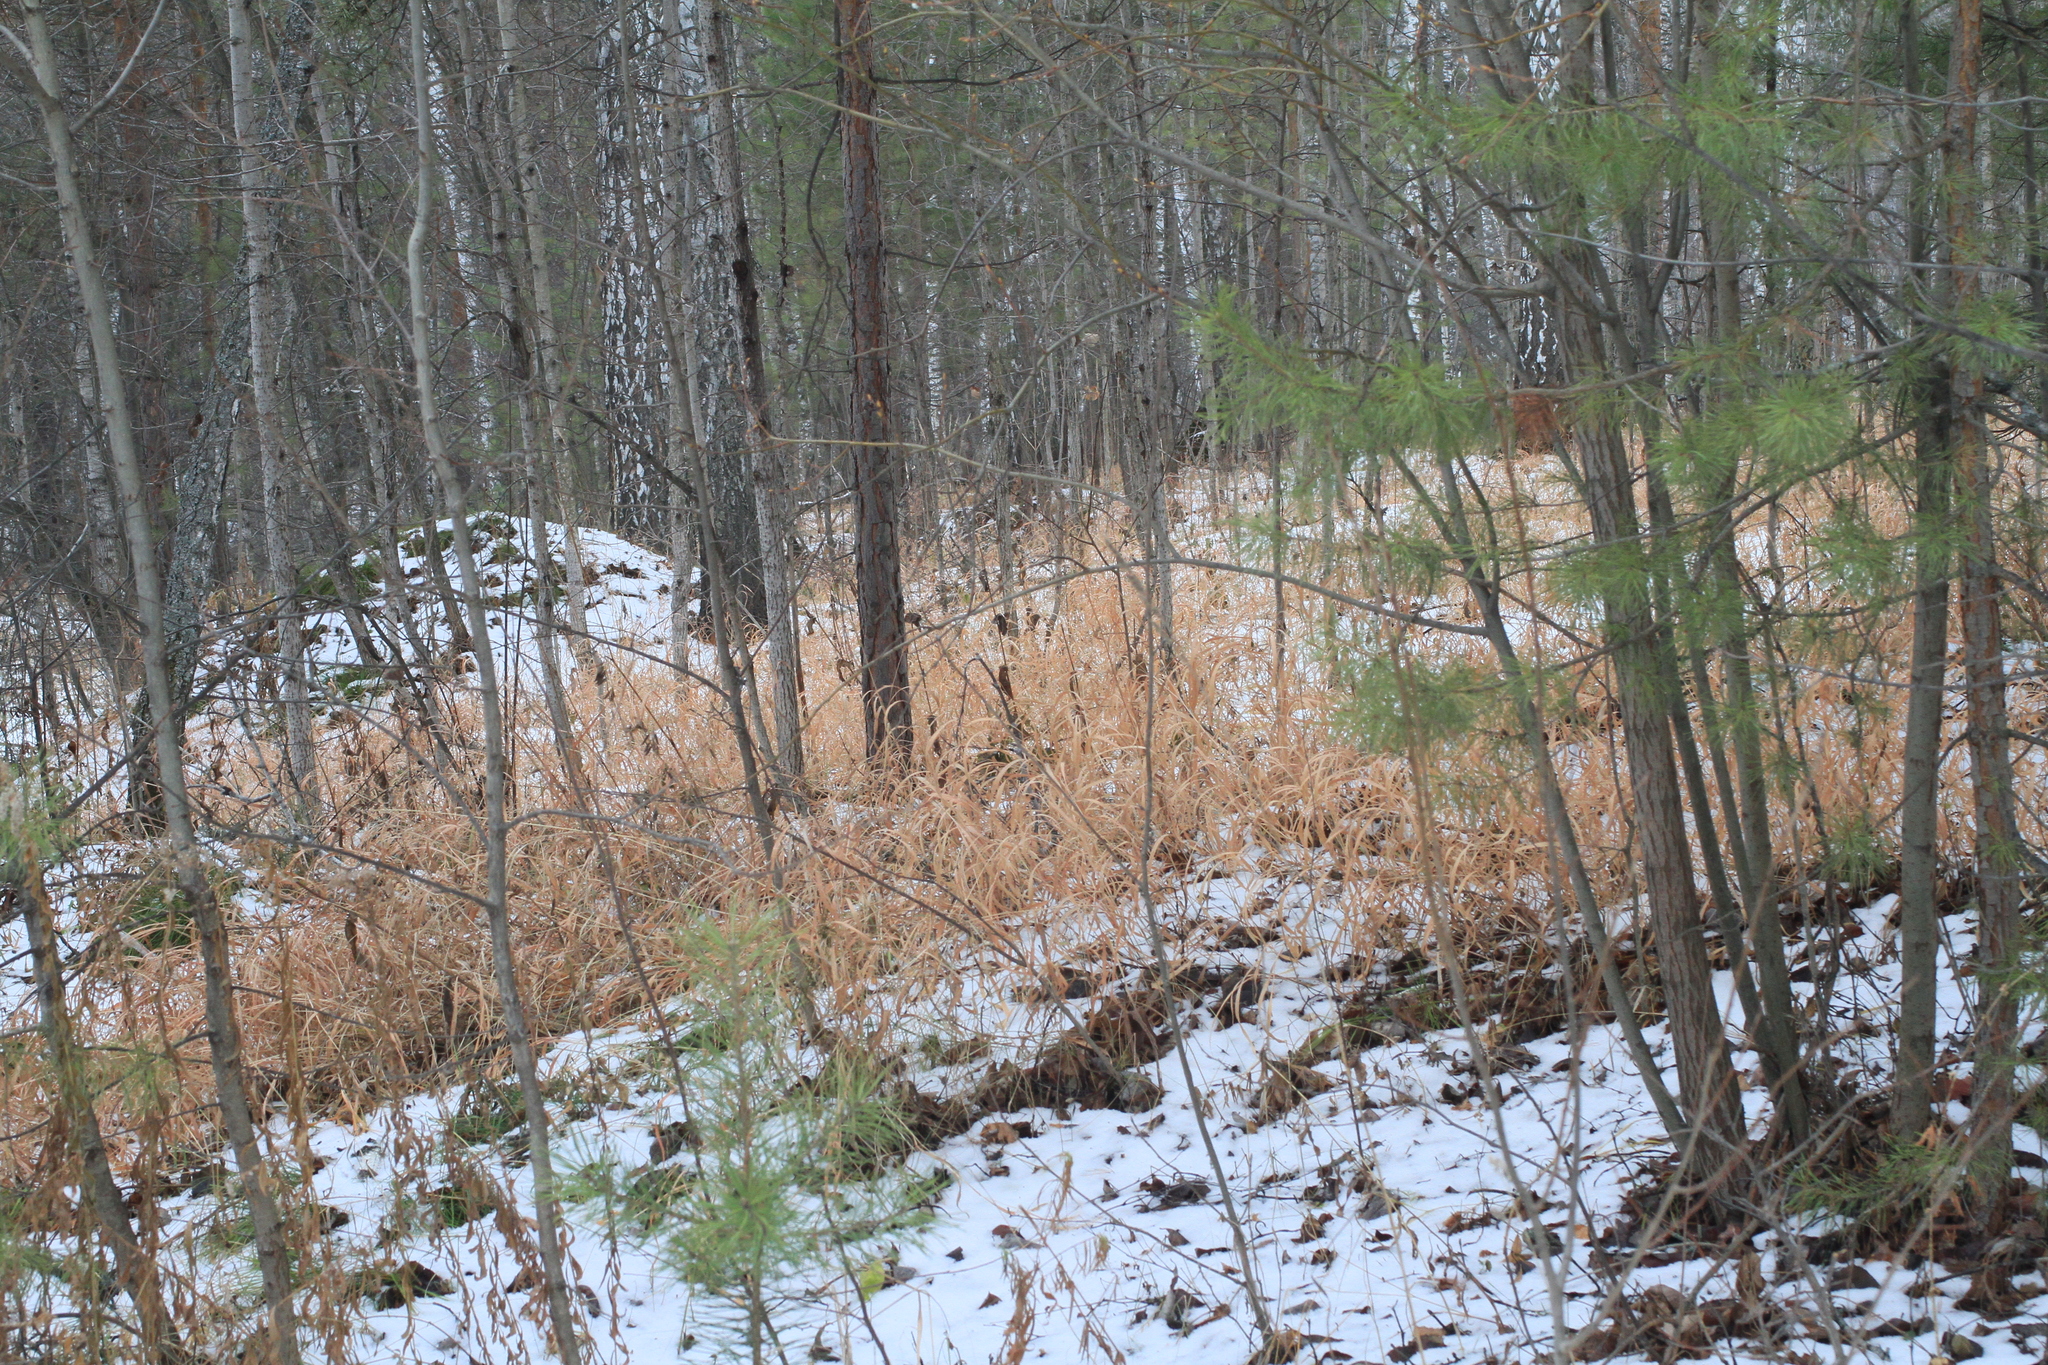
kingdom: Plantae
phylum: Tracheophyta
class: Magnoliopsida
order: Malpighiales
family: Salicaceae
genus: Populus
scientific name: Populus tremula
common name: European aspen
